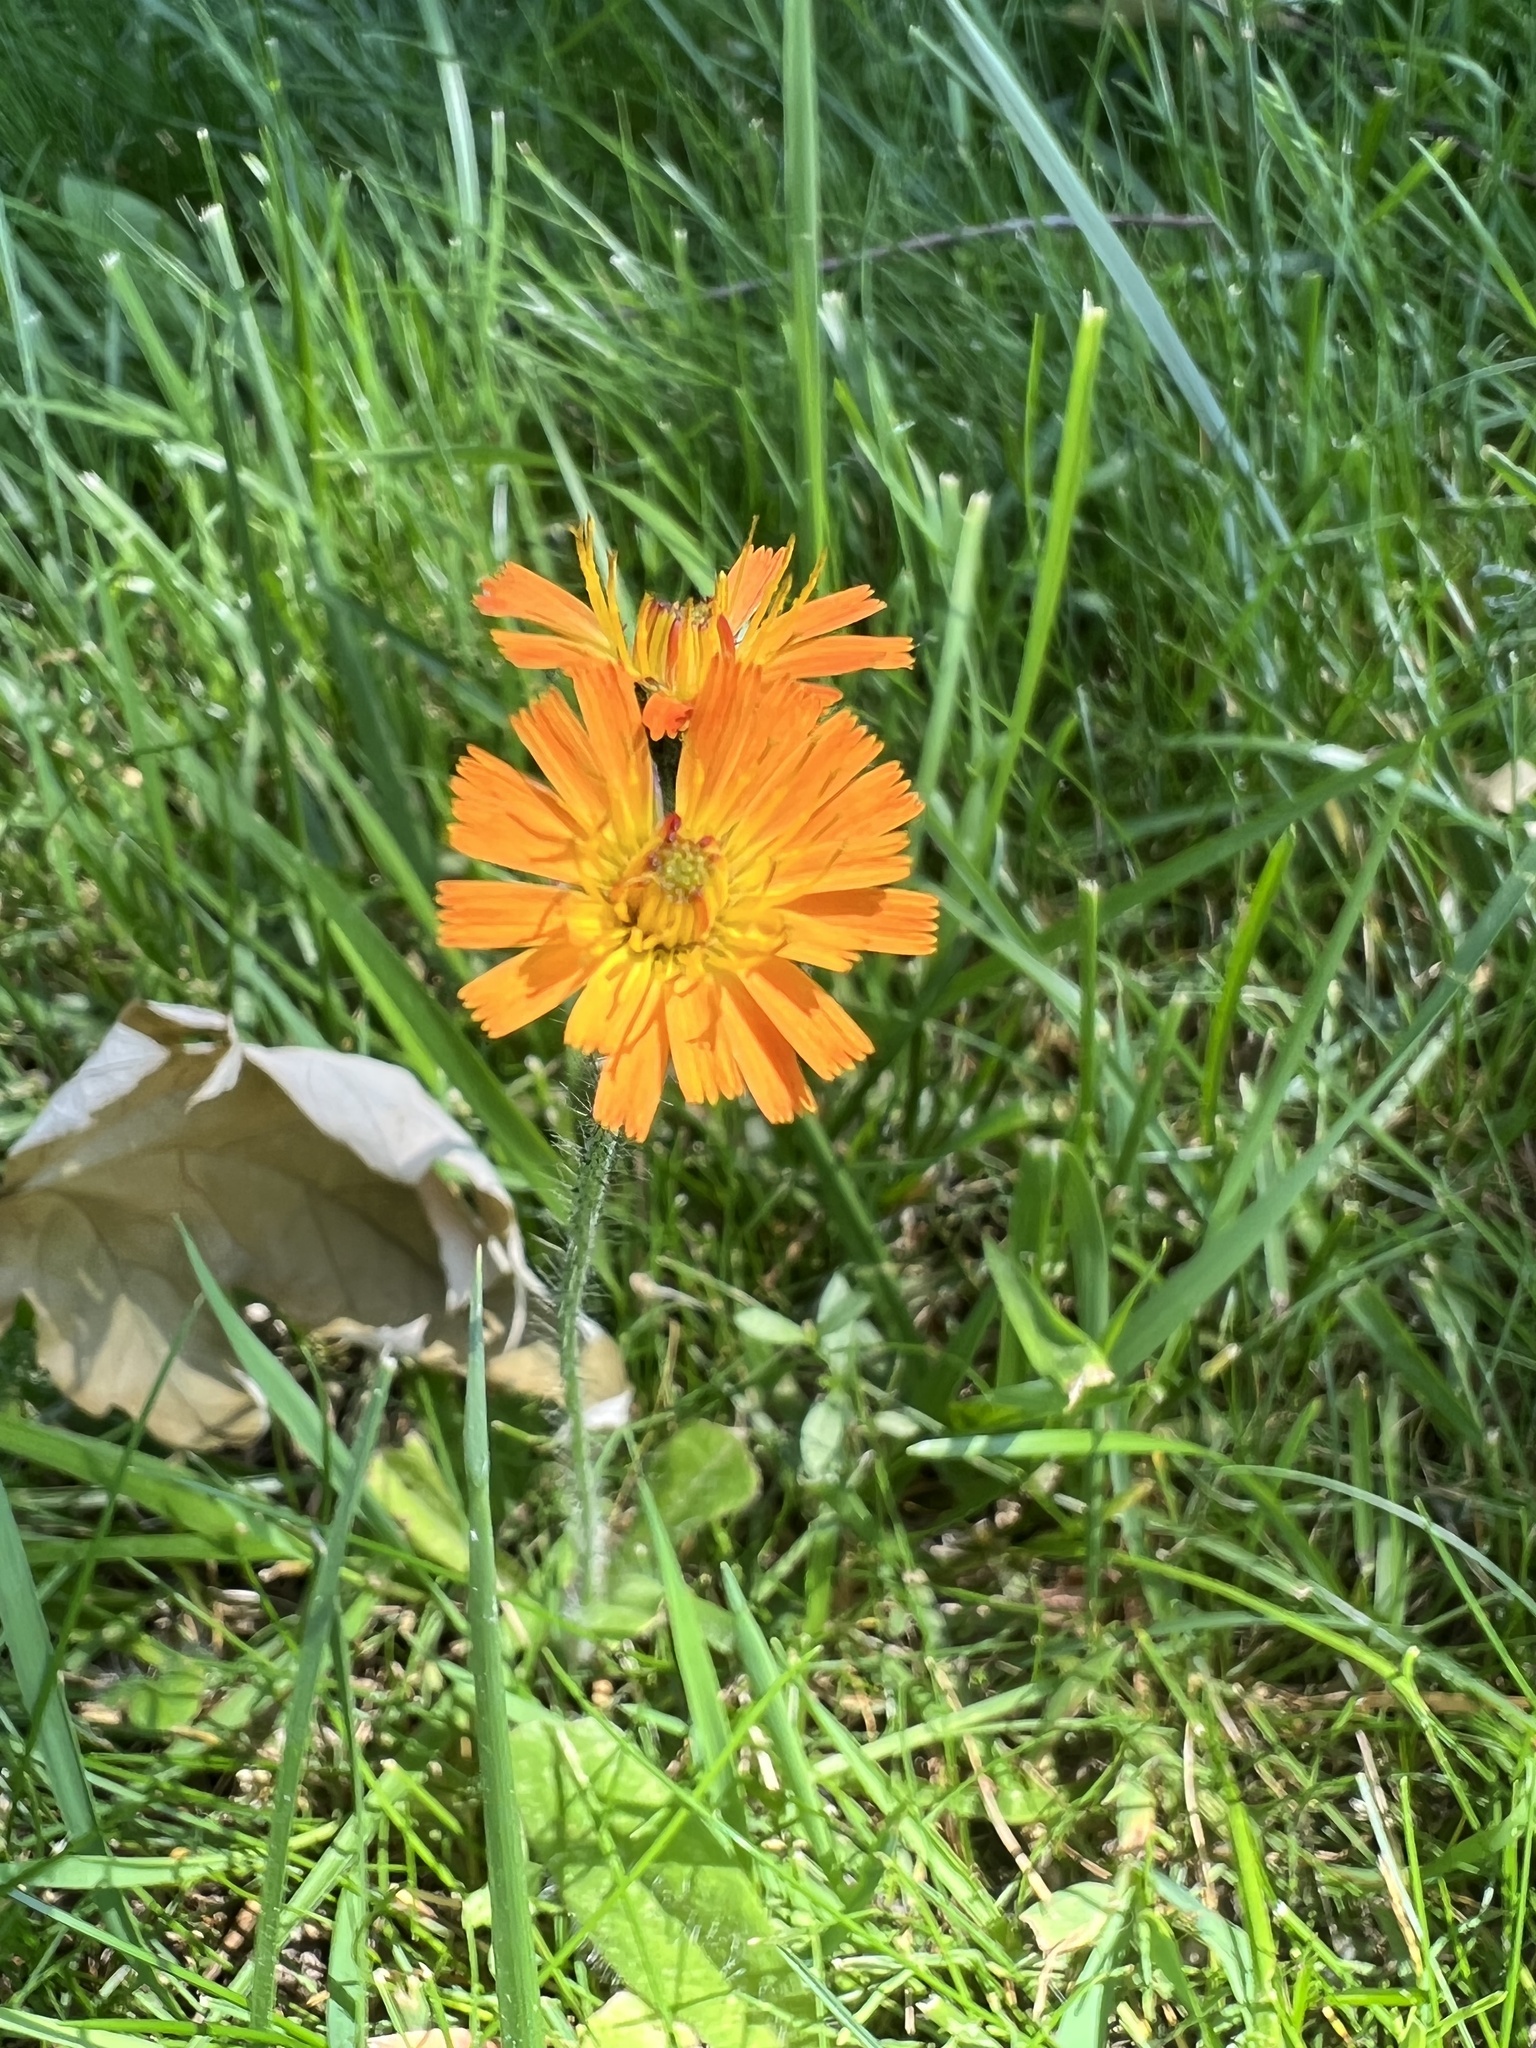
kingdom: Plantae
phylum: Tracheophyta
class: Magnoliopsida
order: Asterales
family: Asteraceae
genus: Pilosella
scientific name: Pilosella aurantiaca
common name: Fox-and-cubs
